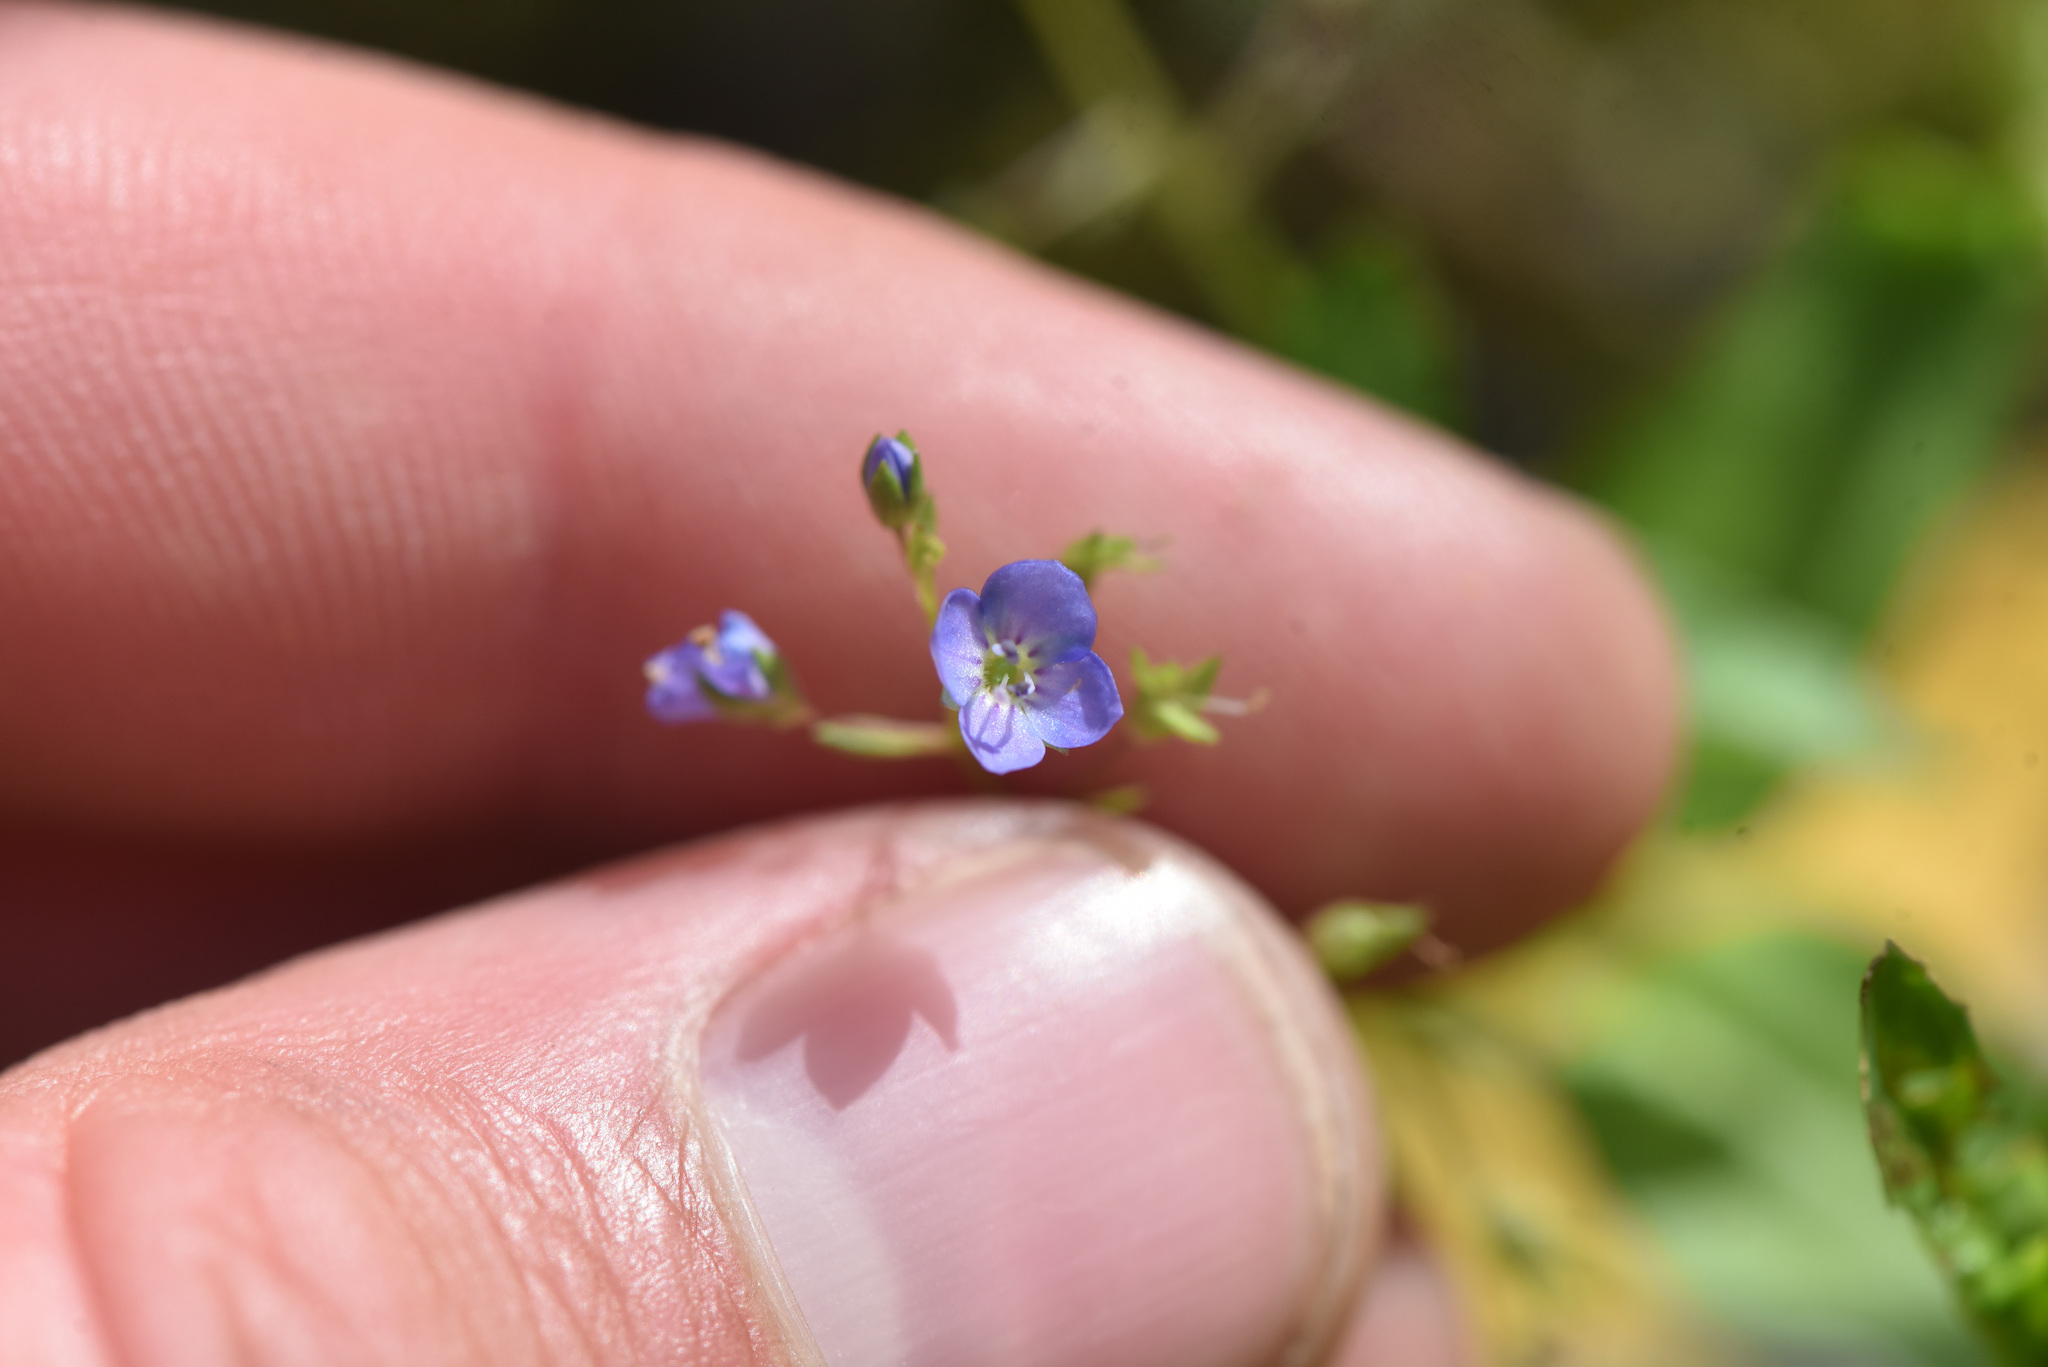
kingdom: Plantae
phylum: Tracheophyta
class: Magnoliopsida
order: Lamiales
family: Plantaginaceae
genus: Veronica
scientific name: Veronica americana
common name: American brooklime
